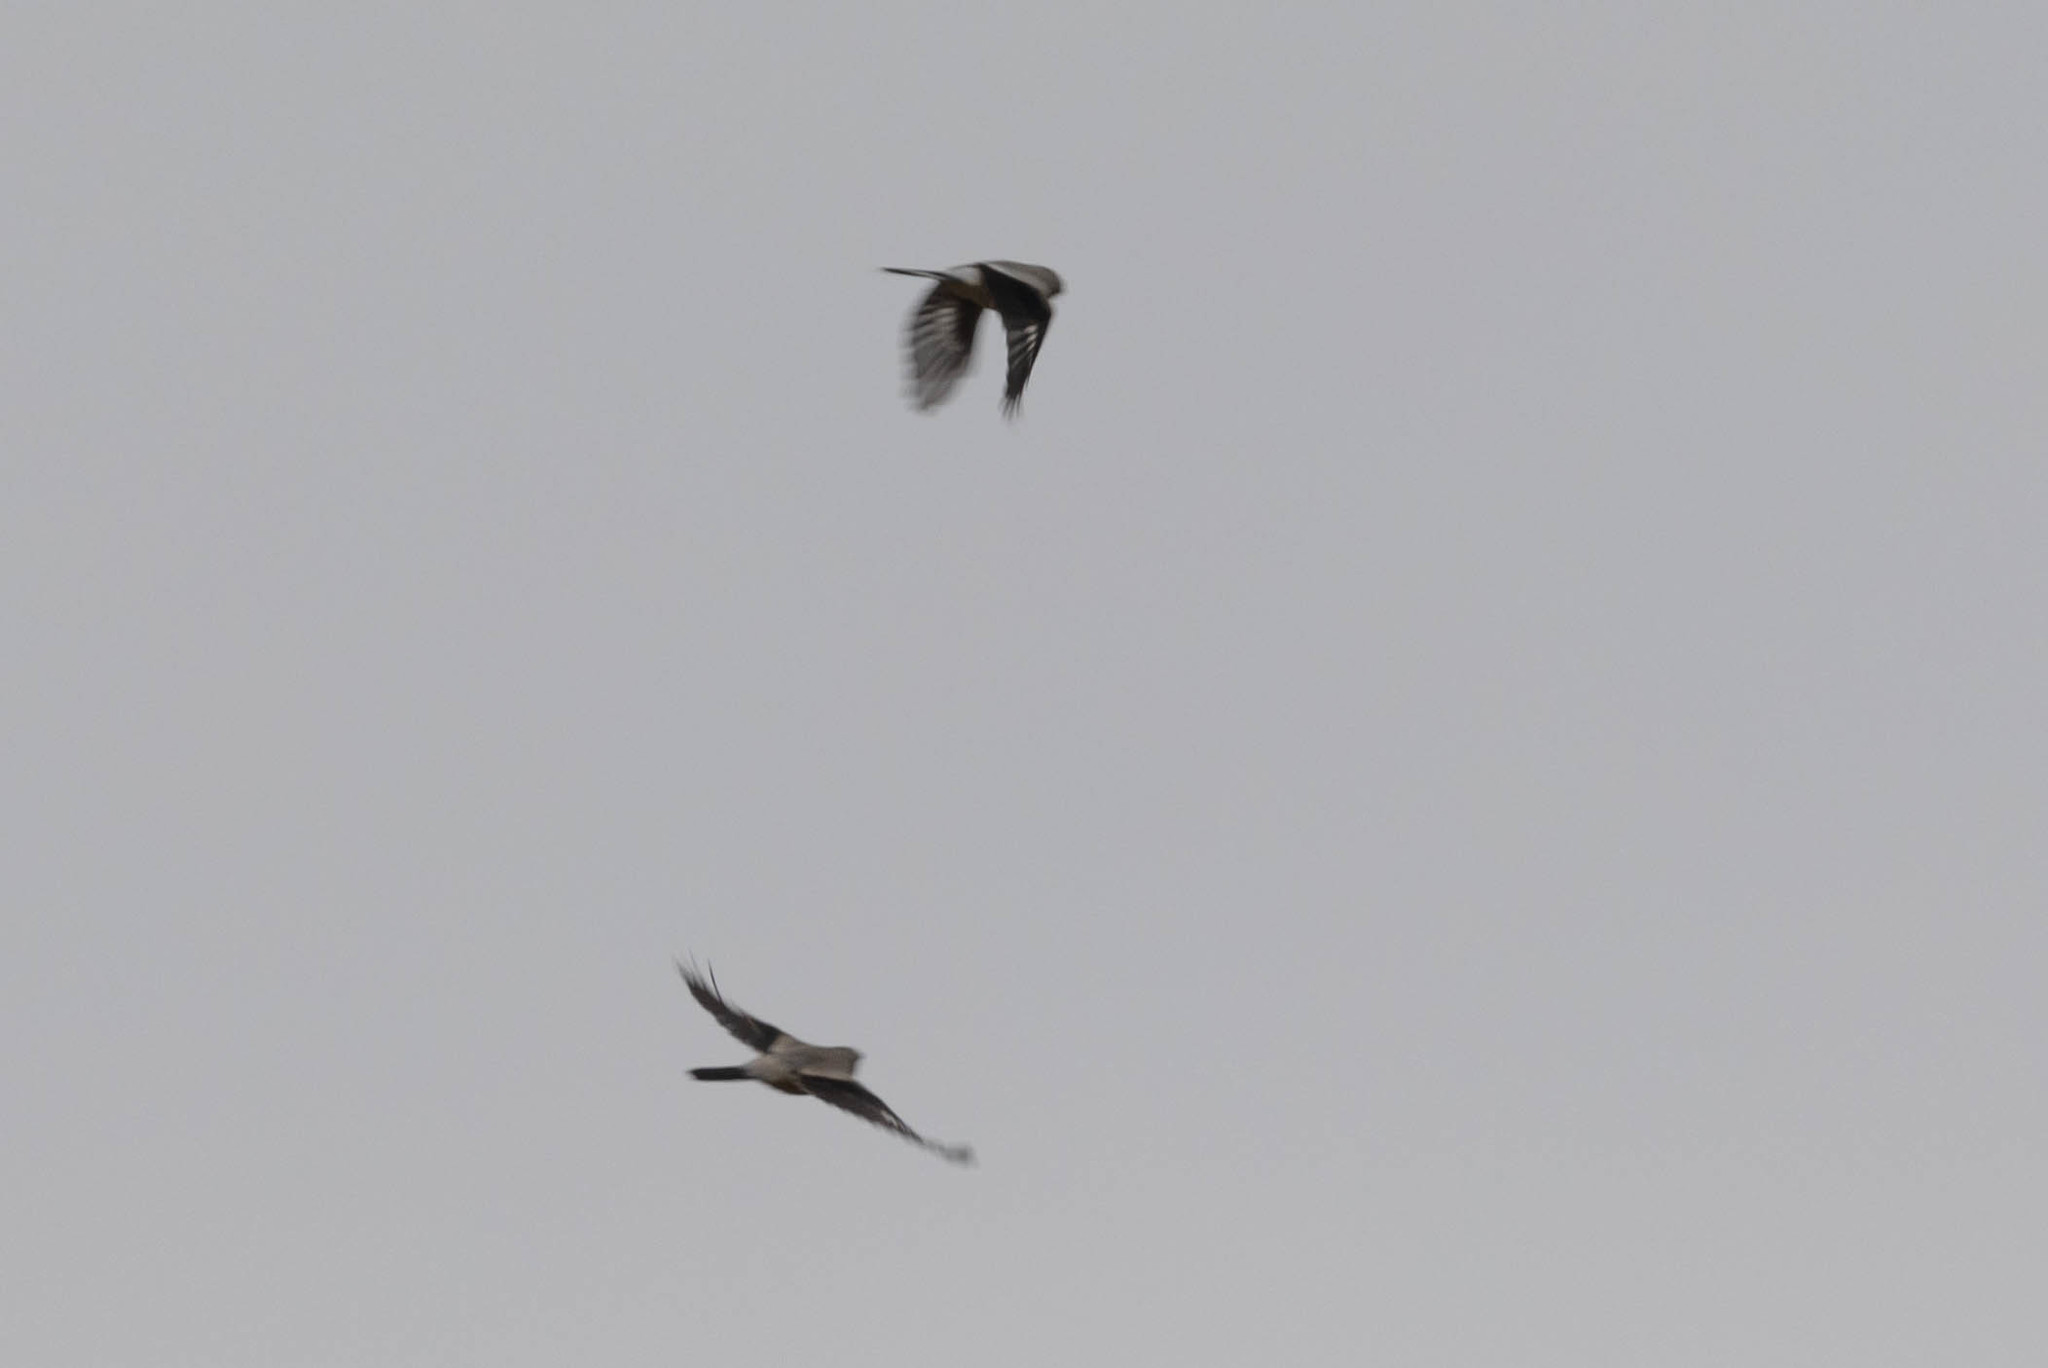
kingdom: Animalia
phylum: Chordata
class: Aves
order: Passeriformes
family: Laniidae
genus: Lanius
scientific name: Lanius borealis
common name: Northern shrike
